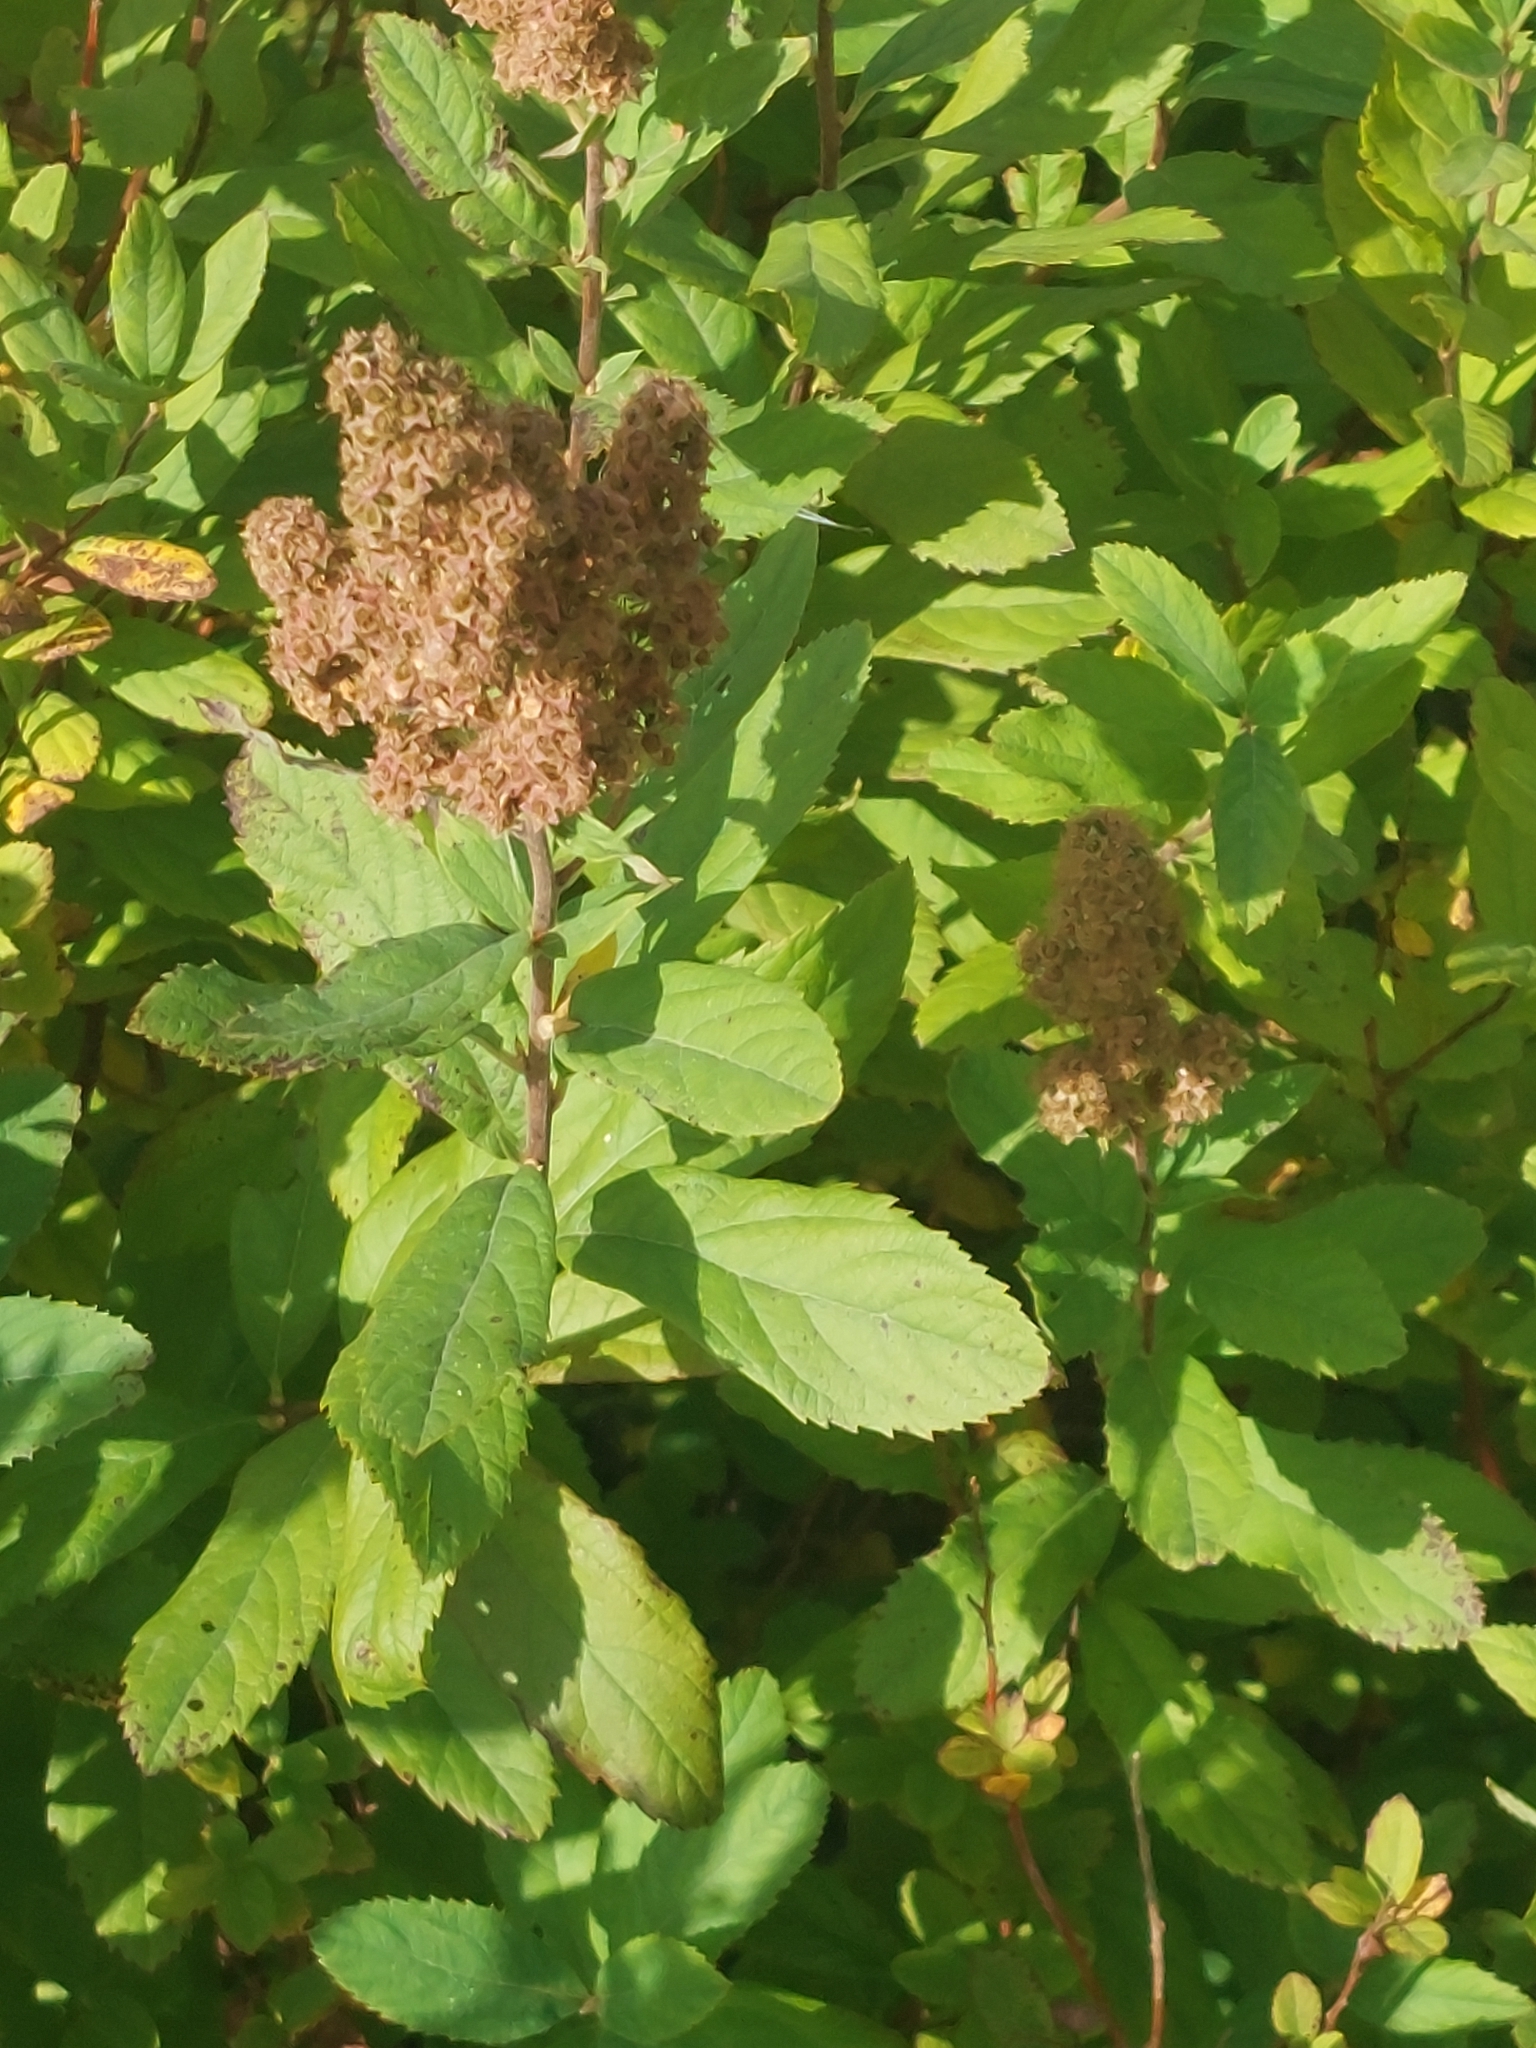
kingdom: Plantae
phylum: Tracheophyta
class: Magnoliopsida
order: Rosales
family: Rosaceae
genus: Spiraea
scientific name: Spiraea douglasii
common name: Steeplebush
